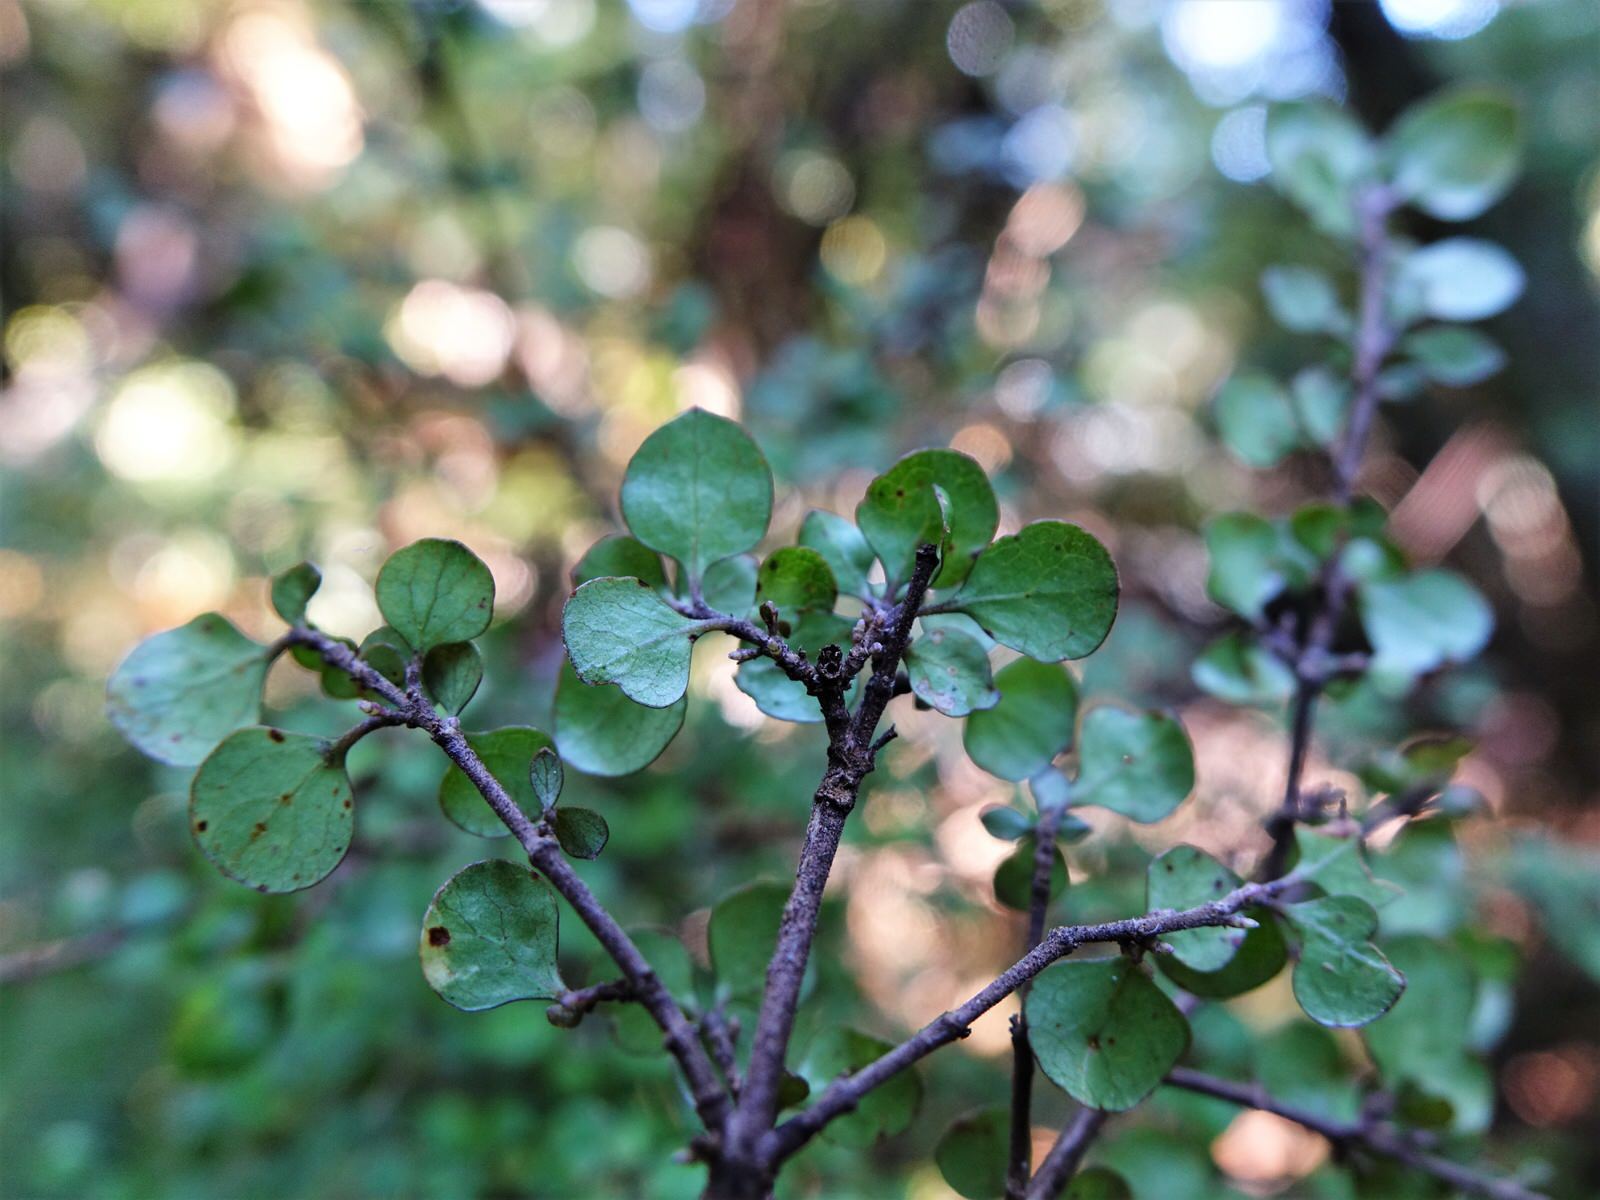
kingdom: Plantae
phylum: Tracheophyta
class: Magnoliopsida
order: Gentianales
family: Rubiaceae
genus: Coprosma
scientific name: Coprosma rhamnoides
